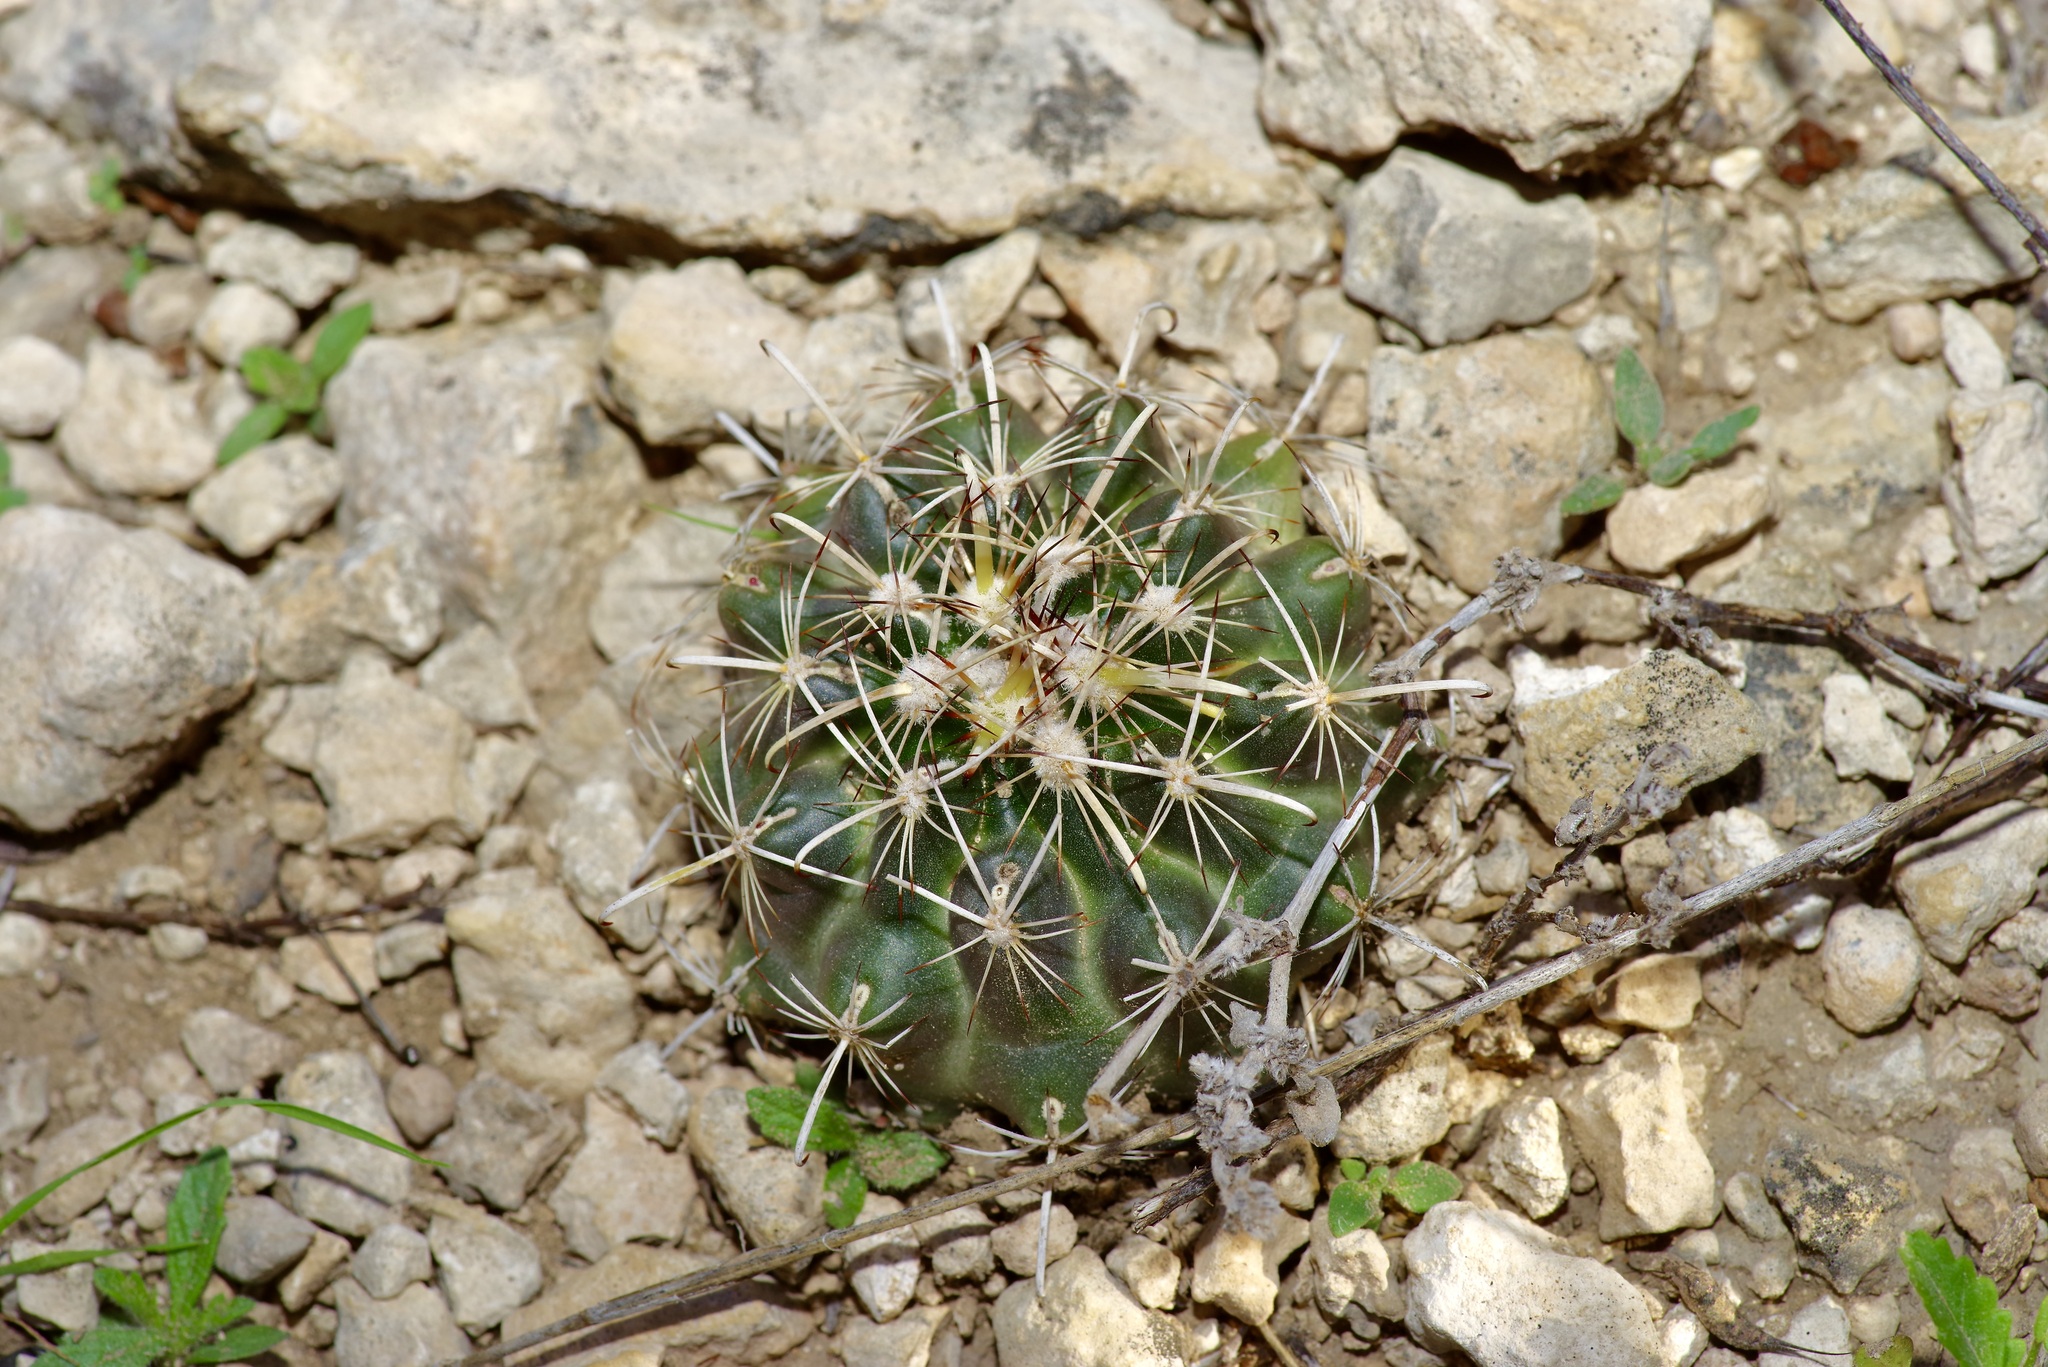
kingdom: Plantae
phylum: Tracheophyta
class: Magnoliopsida
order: Caryophyllales
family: Cactaceae
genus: Sclerocactus
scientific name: Sclerocactus brevihamatus
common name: Engelmann's fishhook cactus
